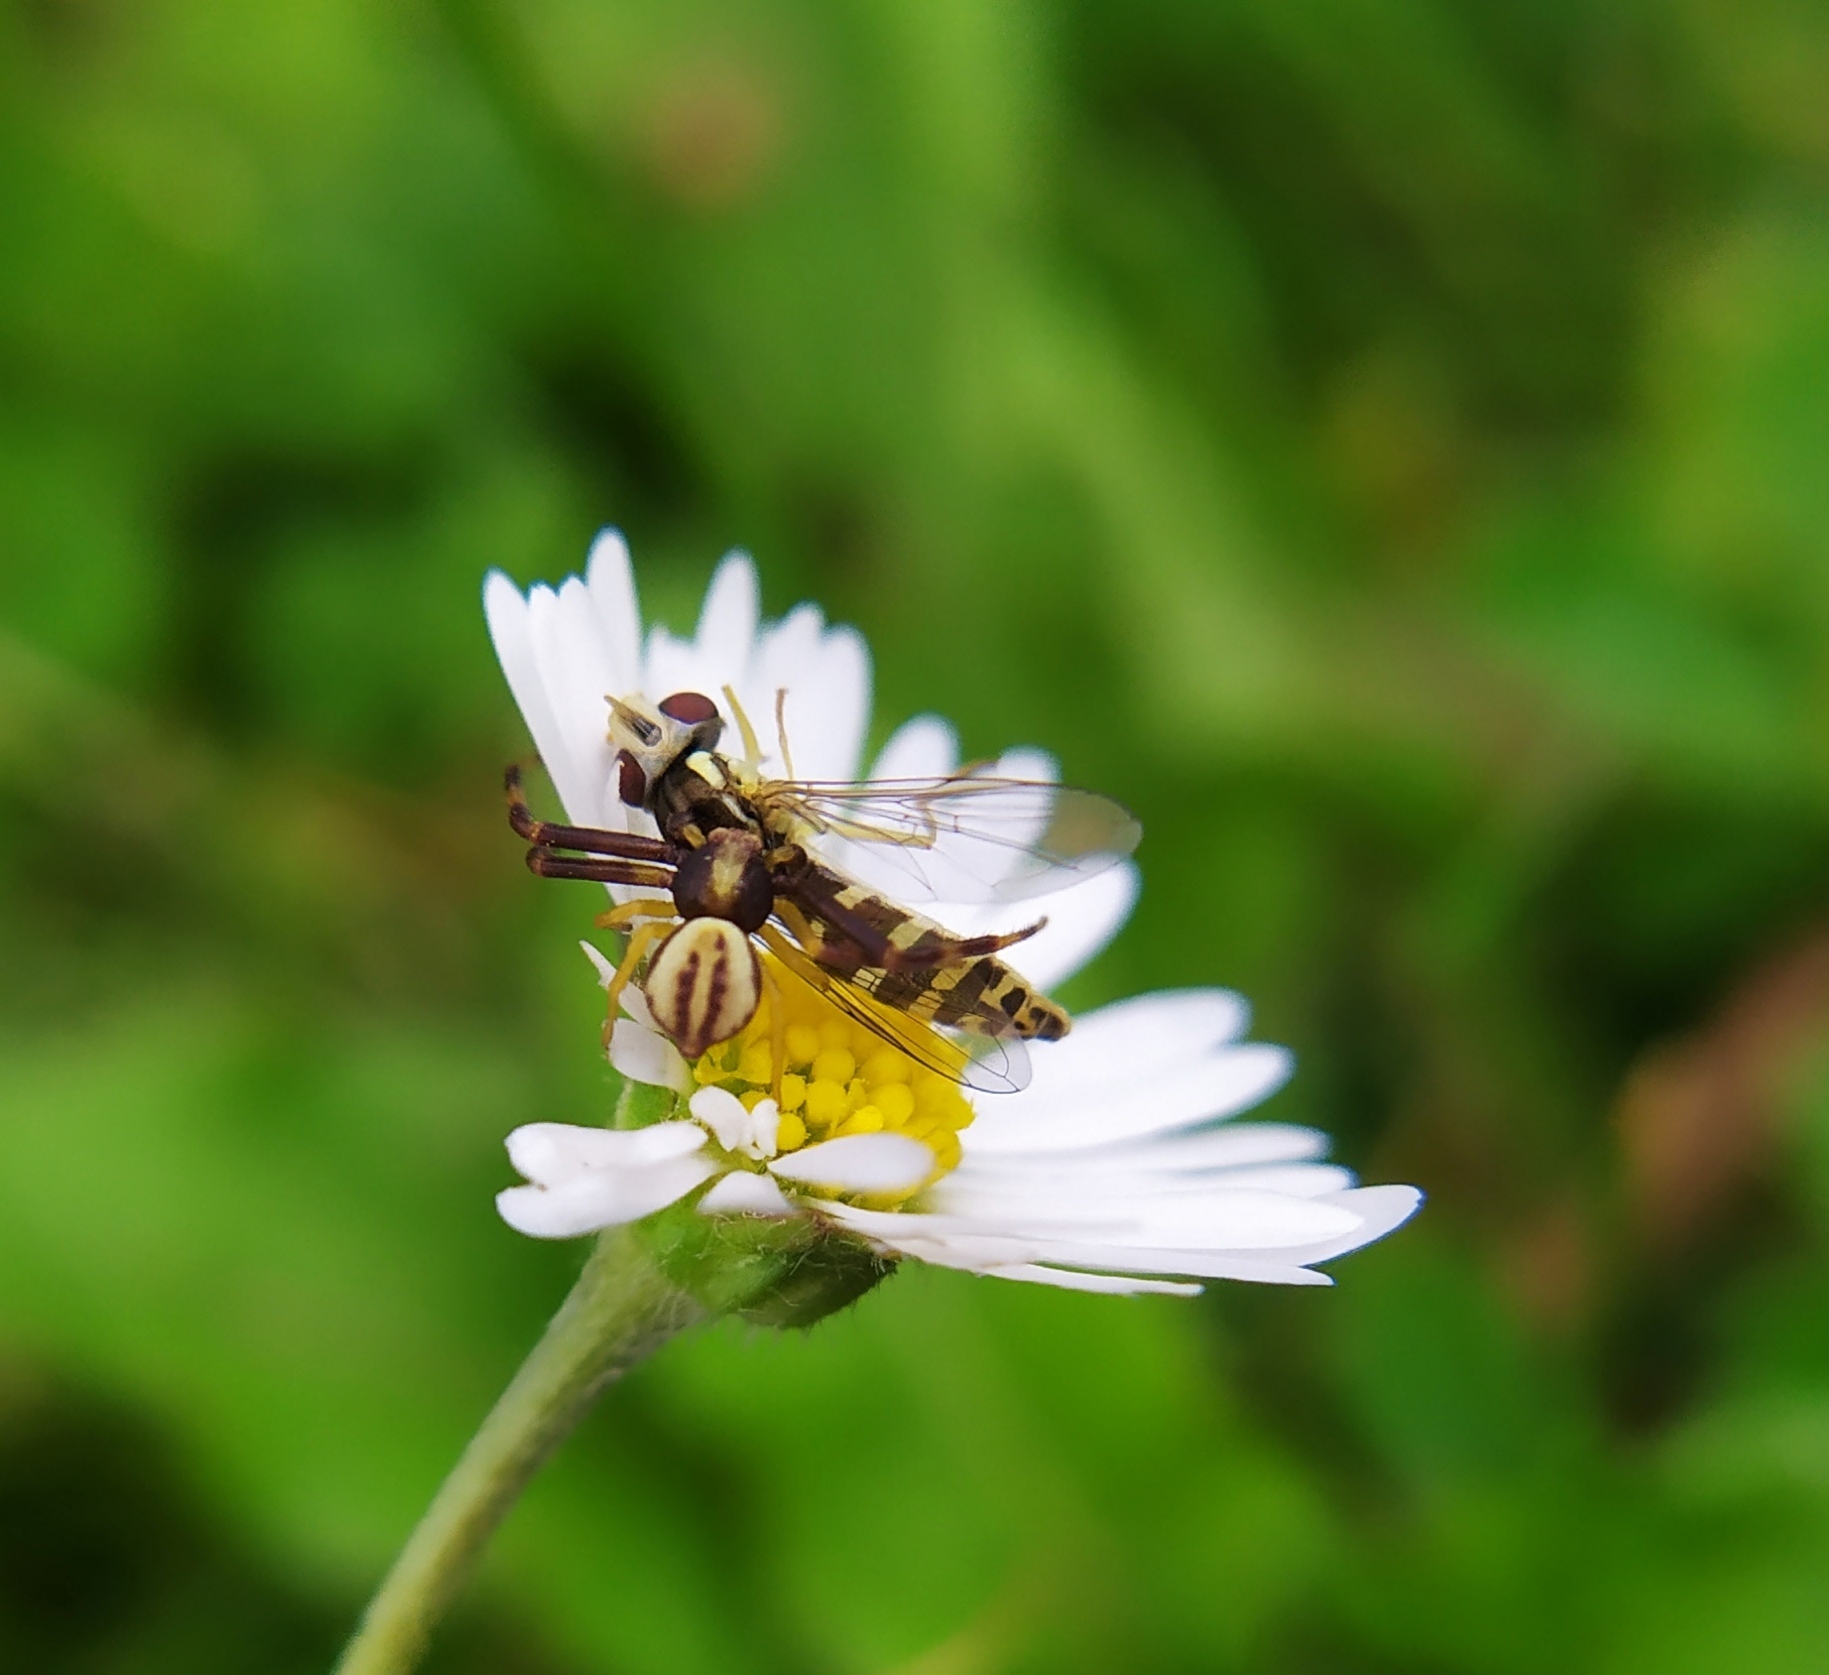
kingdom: Animalia
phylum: Arthropoda
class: Arachnida
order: Araneae
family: Thomisidae
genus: Misumena
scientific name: Misumena vatia
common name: Goldenrod crab spider
